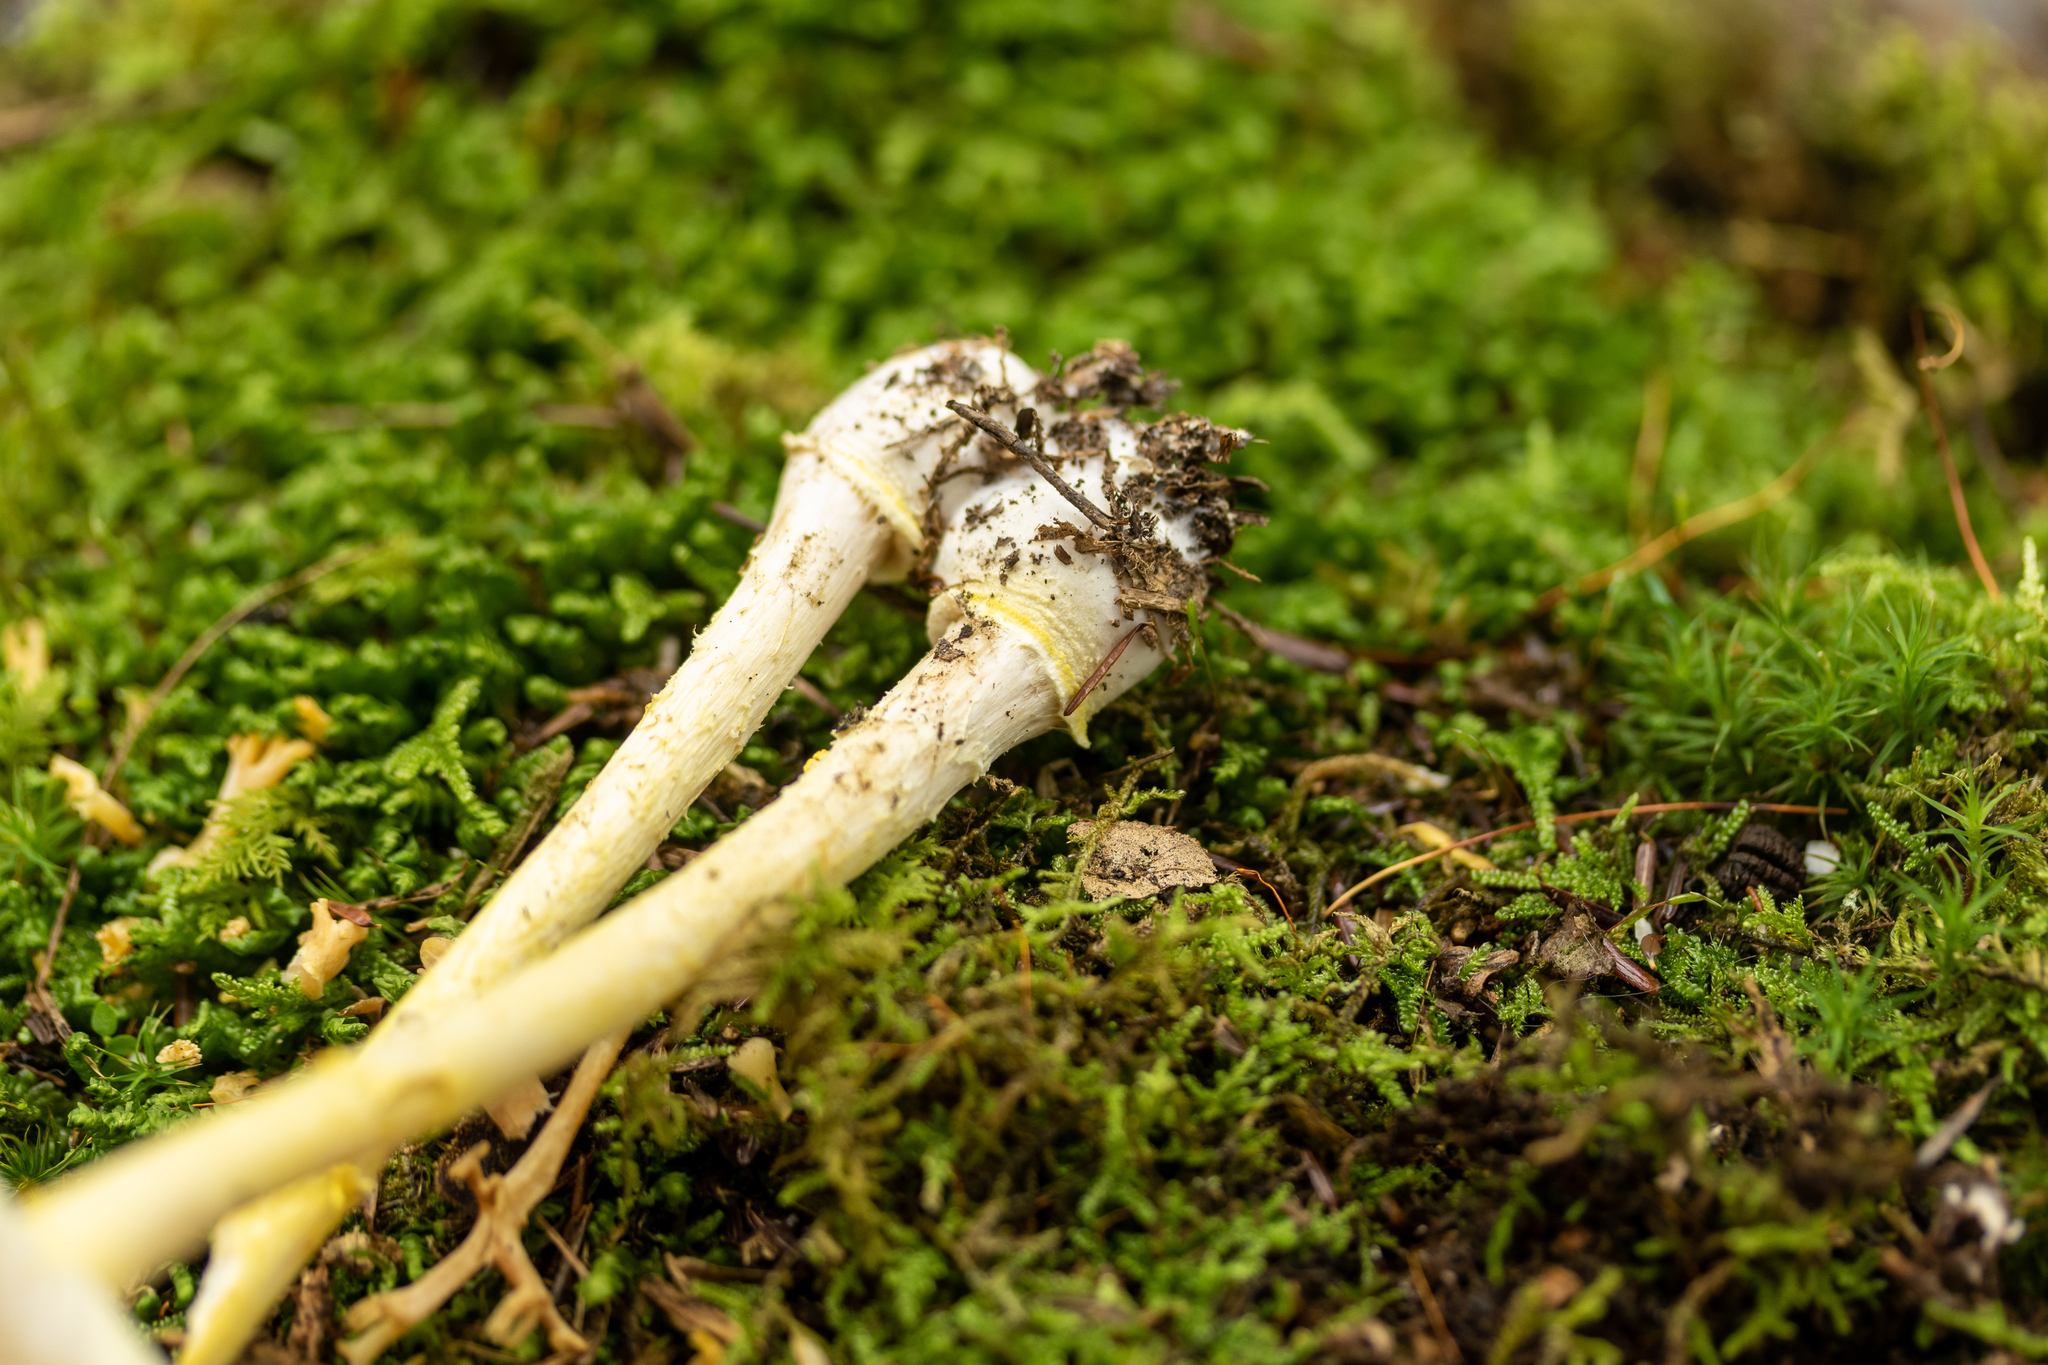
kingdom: Fungi
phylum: Basidiomycota
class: Agaricomycetes
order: Agaricales
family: Amanitaceae
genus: Amanita
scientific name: Amanita frostiana
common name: Frost's amanita
